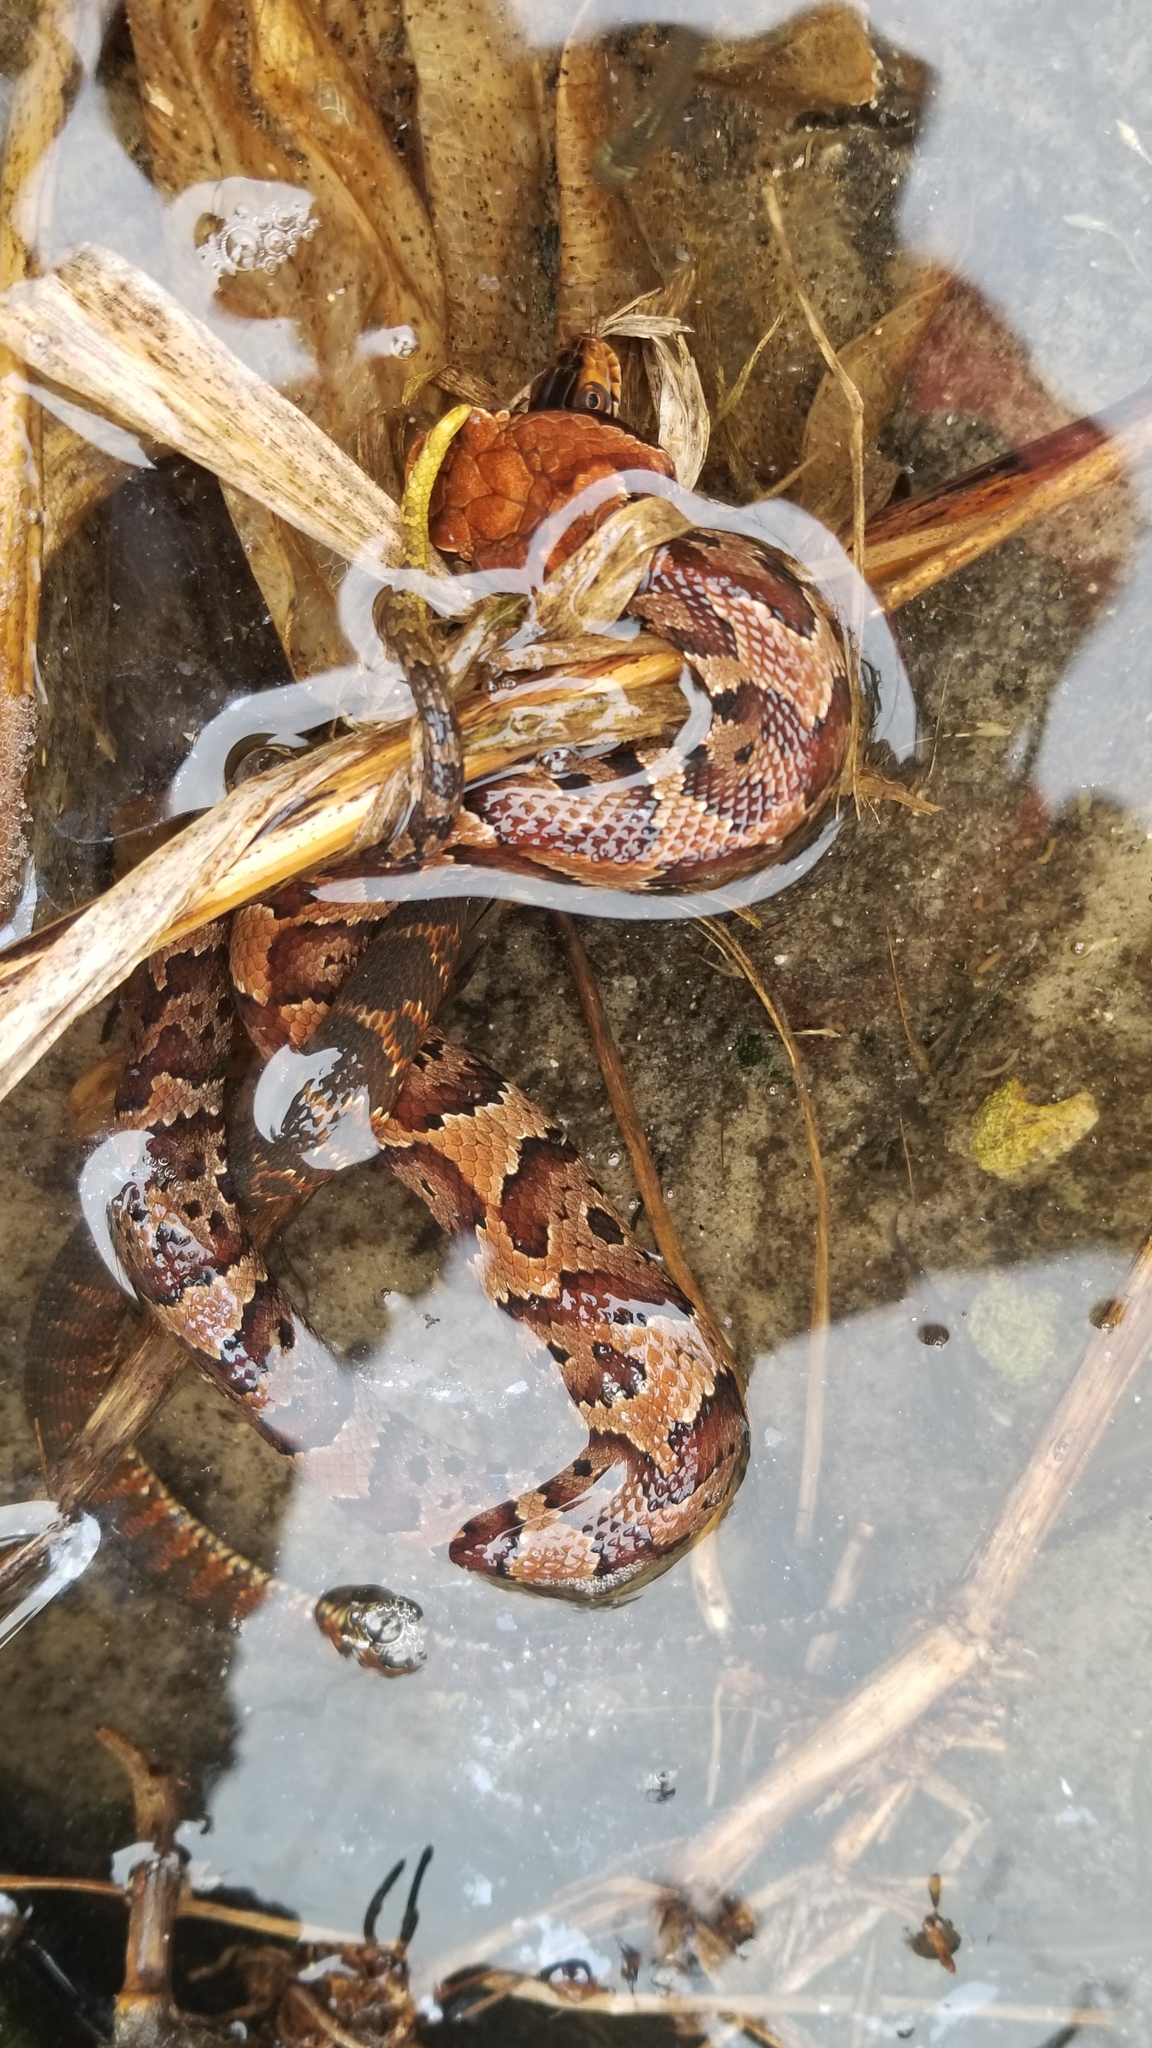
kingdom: Animalia
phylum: Chordata
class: Squamata
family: Viperidae
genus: Agkistrodon
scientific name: Agkistrodon conanti
